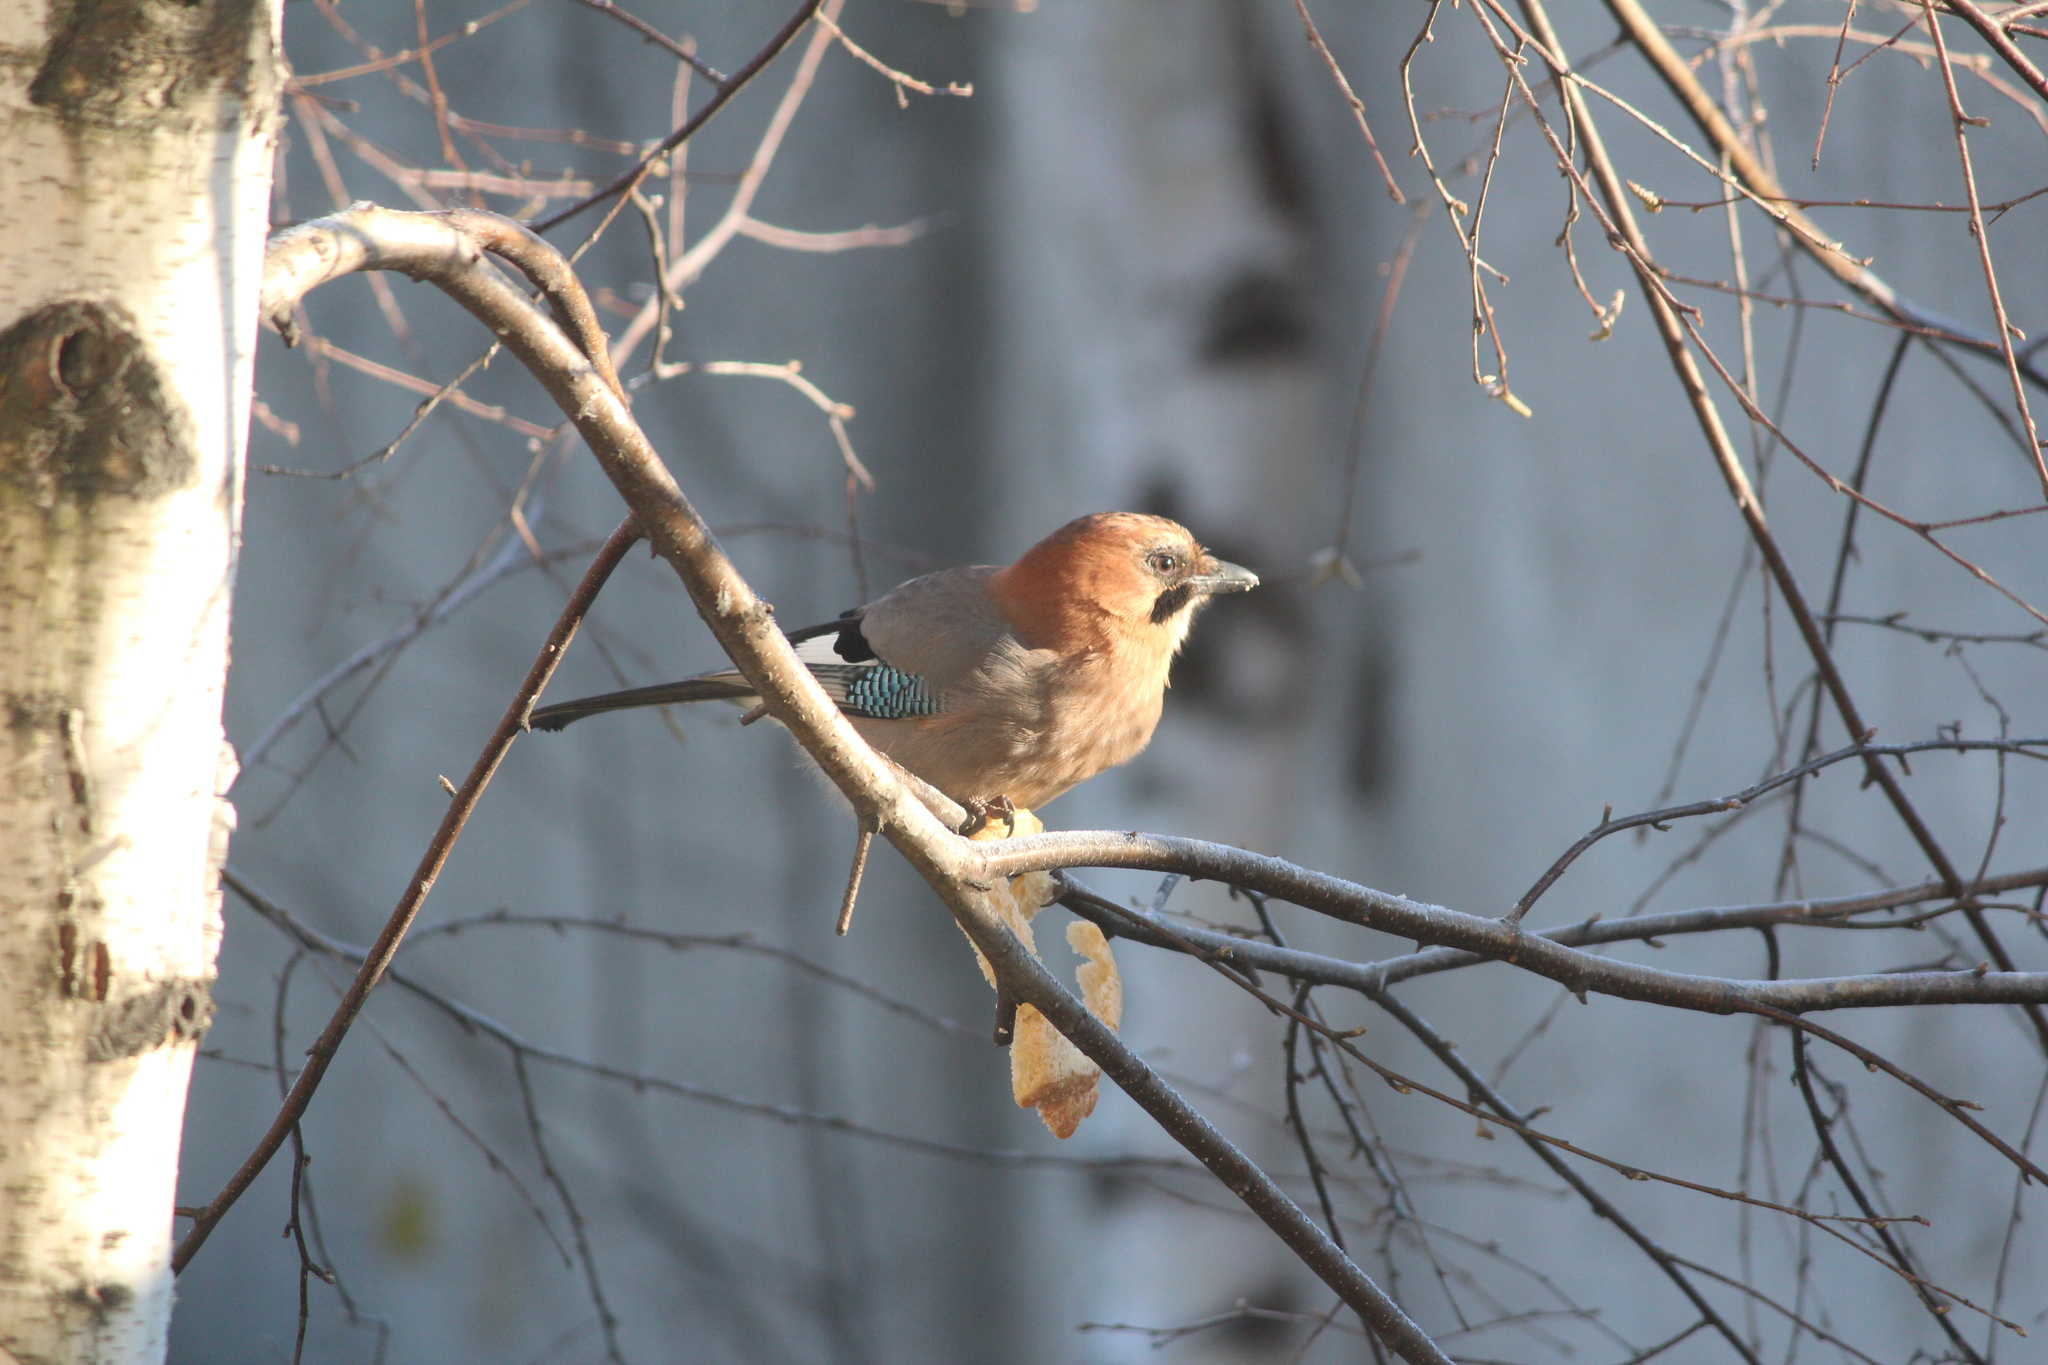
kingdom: Animalia
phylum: Chordata
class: Aves
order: Passeriformes
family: Corvidae
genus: Garrulus
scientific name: Garrulus glandarius
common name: Eurasian jay
